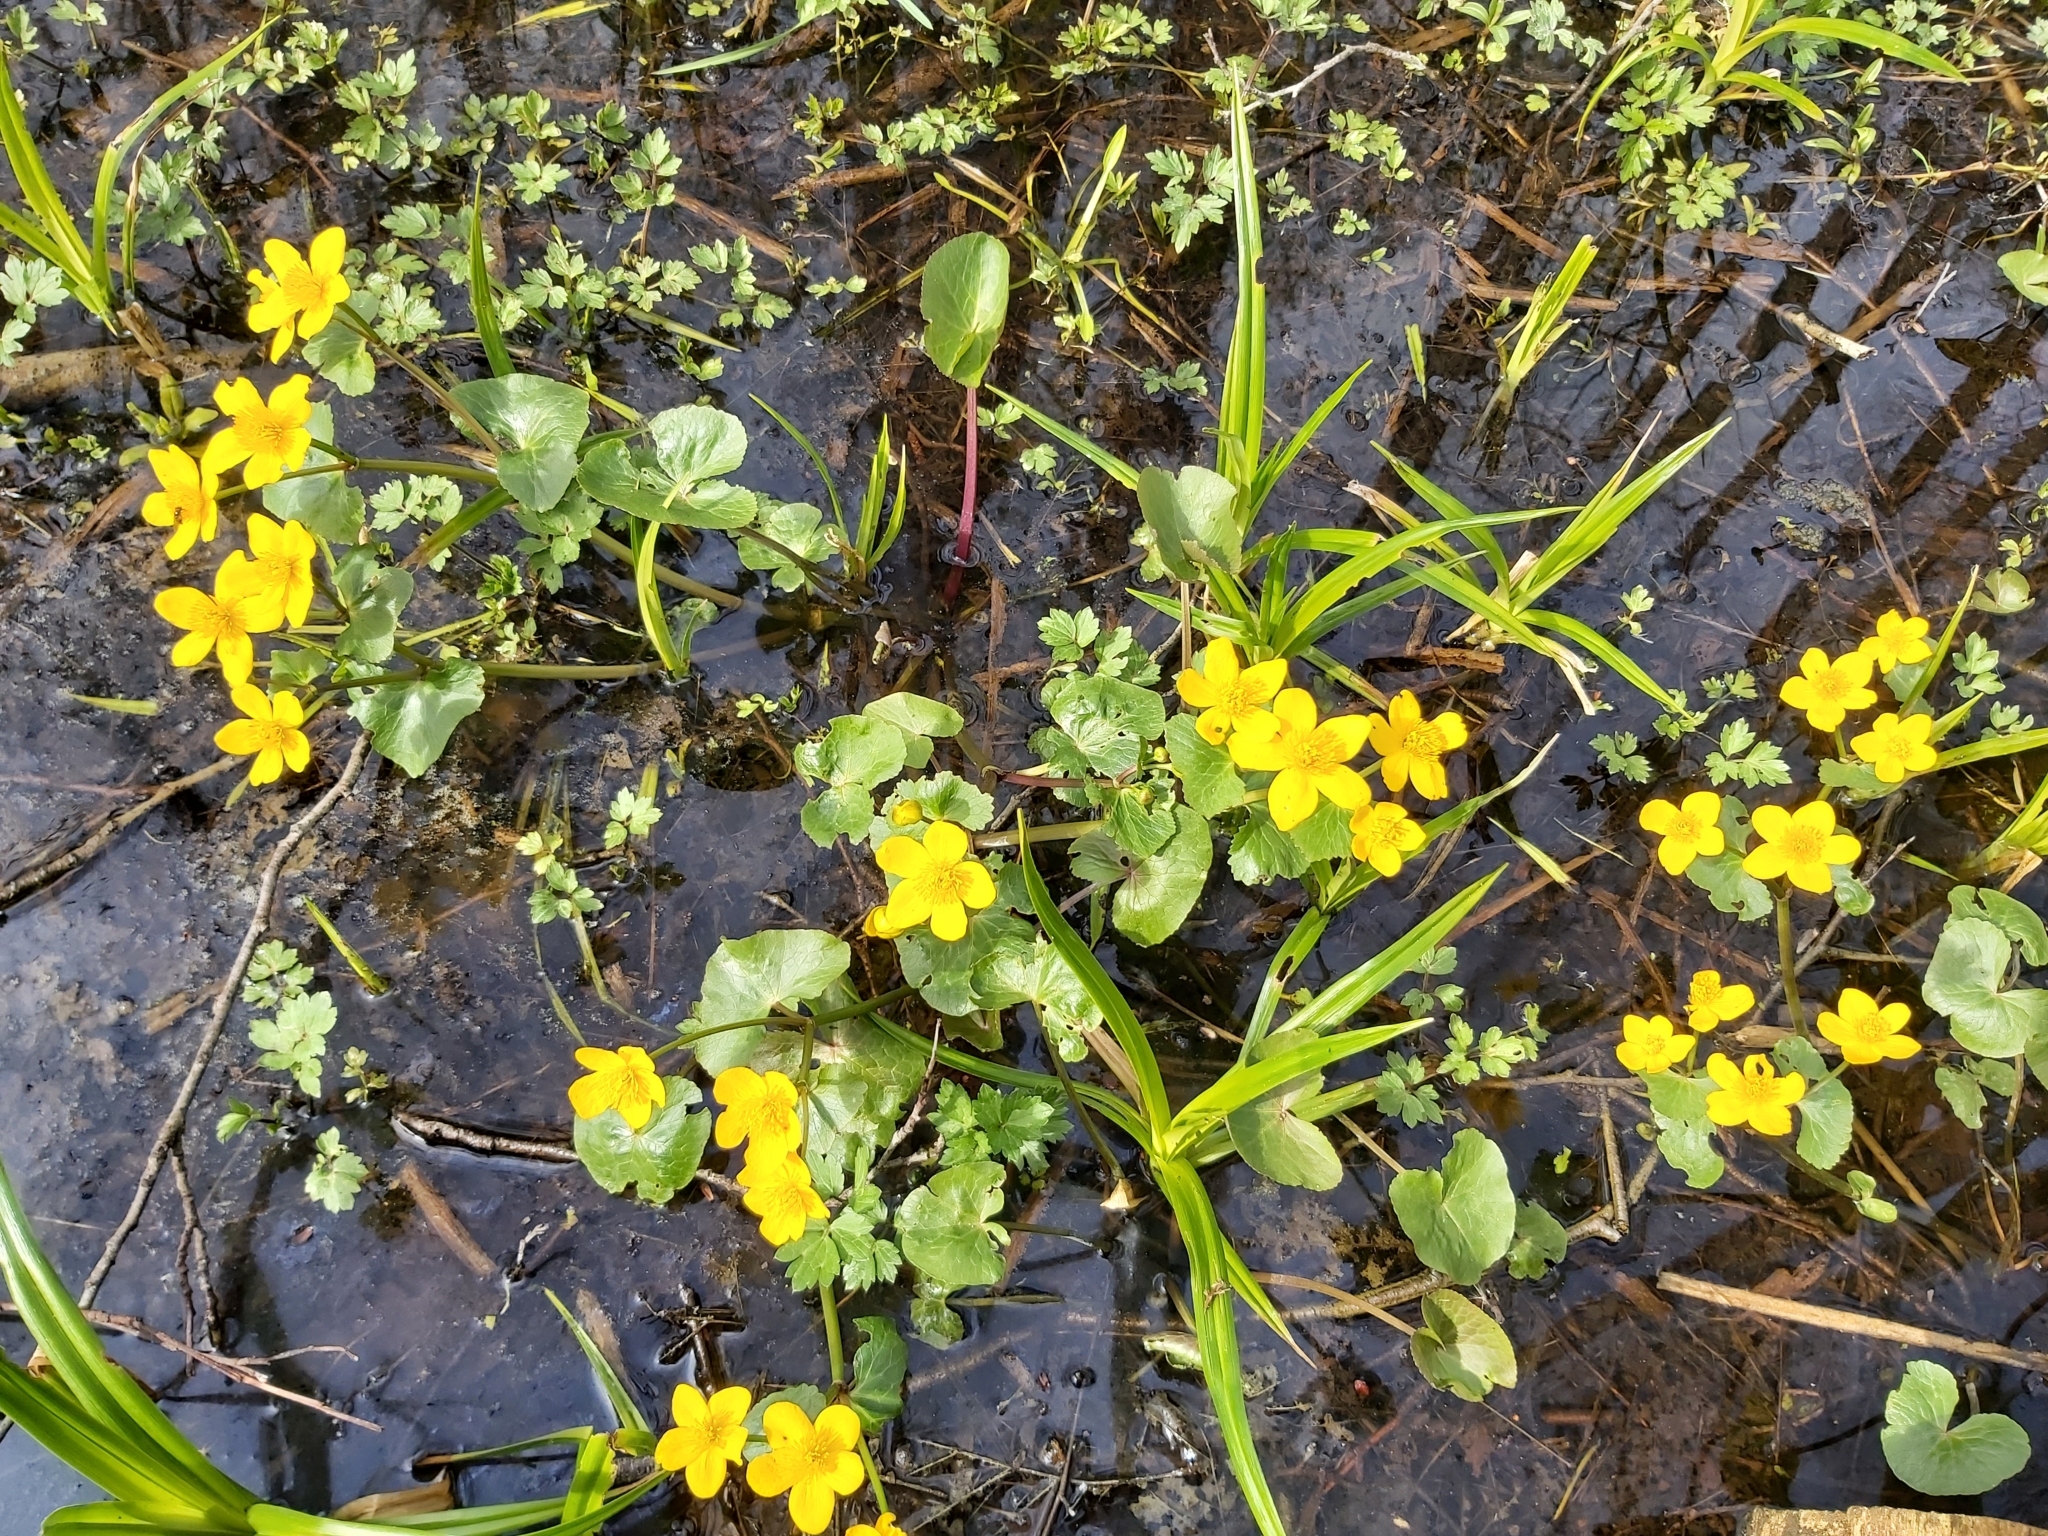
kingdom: Plantae
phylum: Tracheophyta
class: Magnoliopsida
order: Ranunculales
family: Ranunculaceae
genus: Caltha
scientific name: Caltha palustris
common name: Marsh marigold
